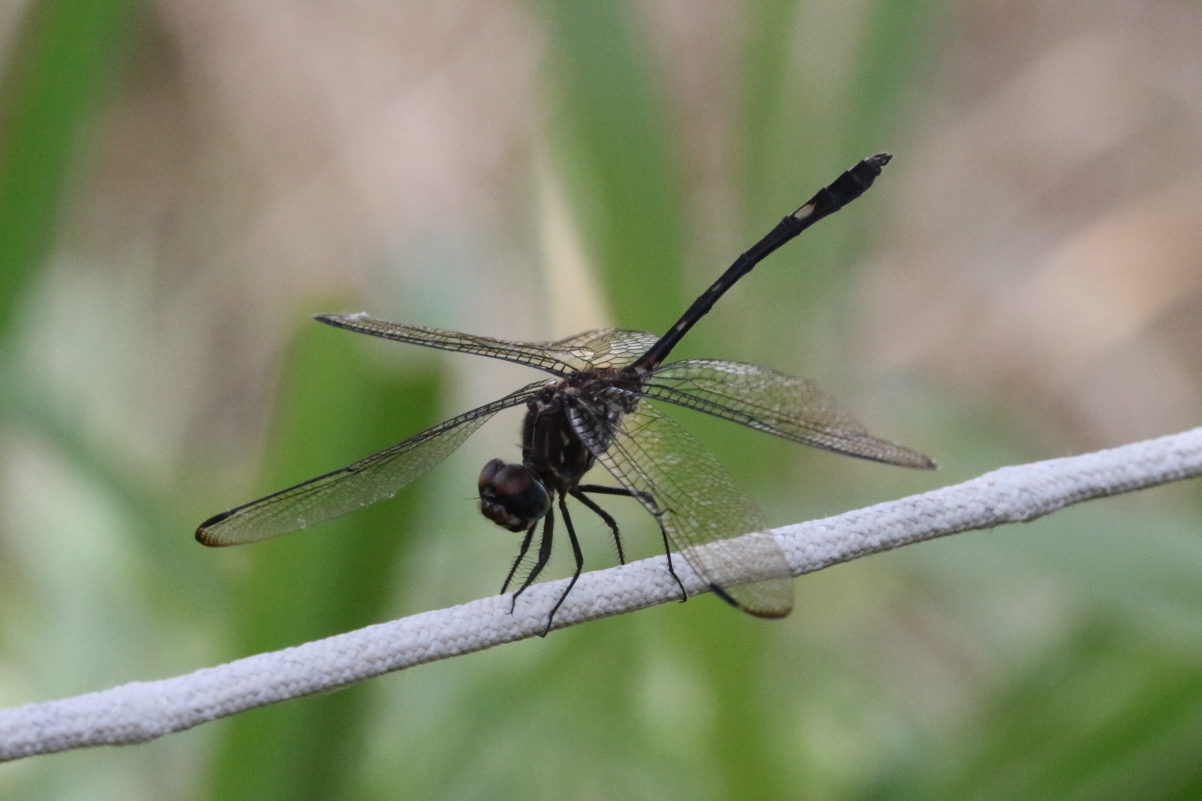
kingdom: Animalia
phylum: Arthropoda
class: Insecta
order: Odonata
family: Libellulidae
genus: Dythemis
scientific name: Dythemis velox
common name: Swift setwing
